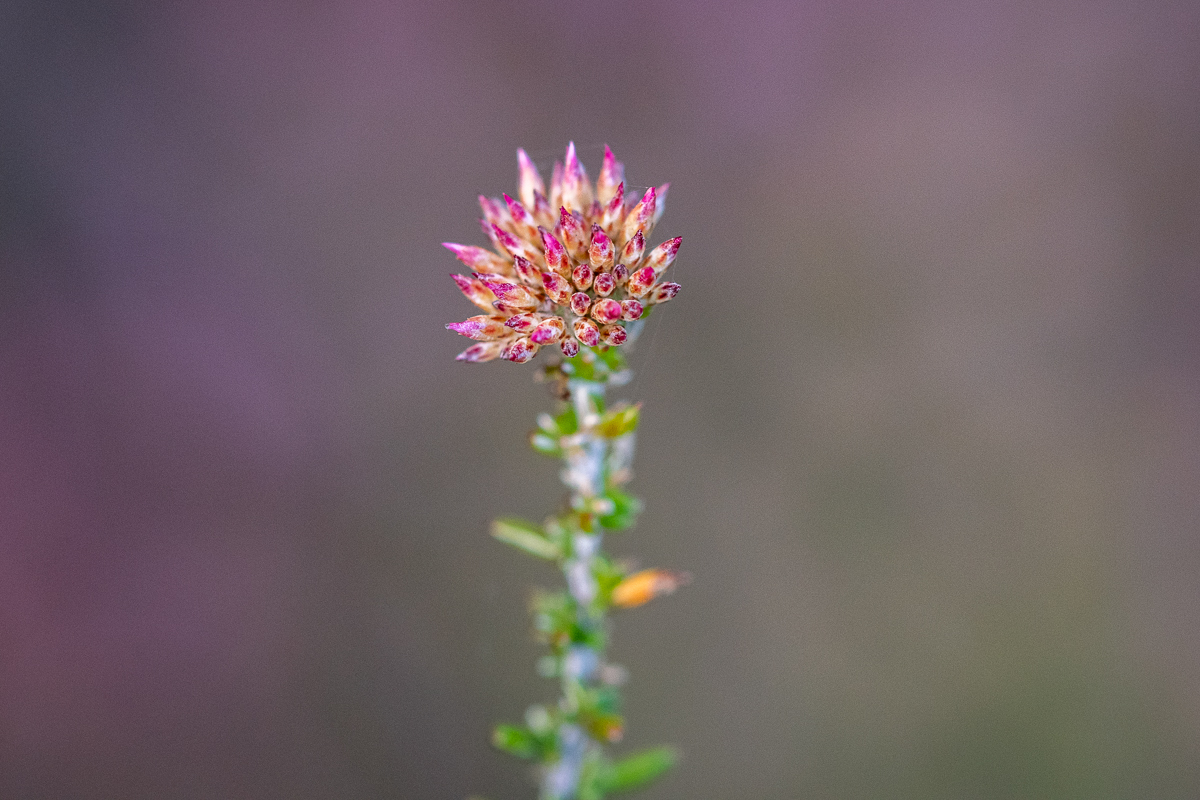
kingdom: Plantae
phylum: Tracheophyta
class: Magnoliopsida
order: Asterales
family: Asteraceae
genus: Metalasia
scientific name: Metalasia erubescens
